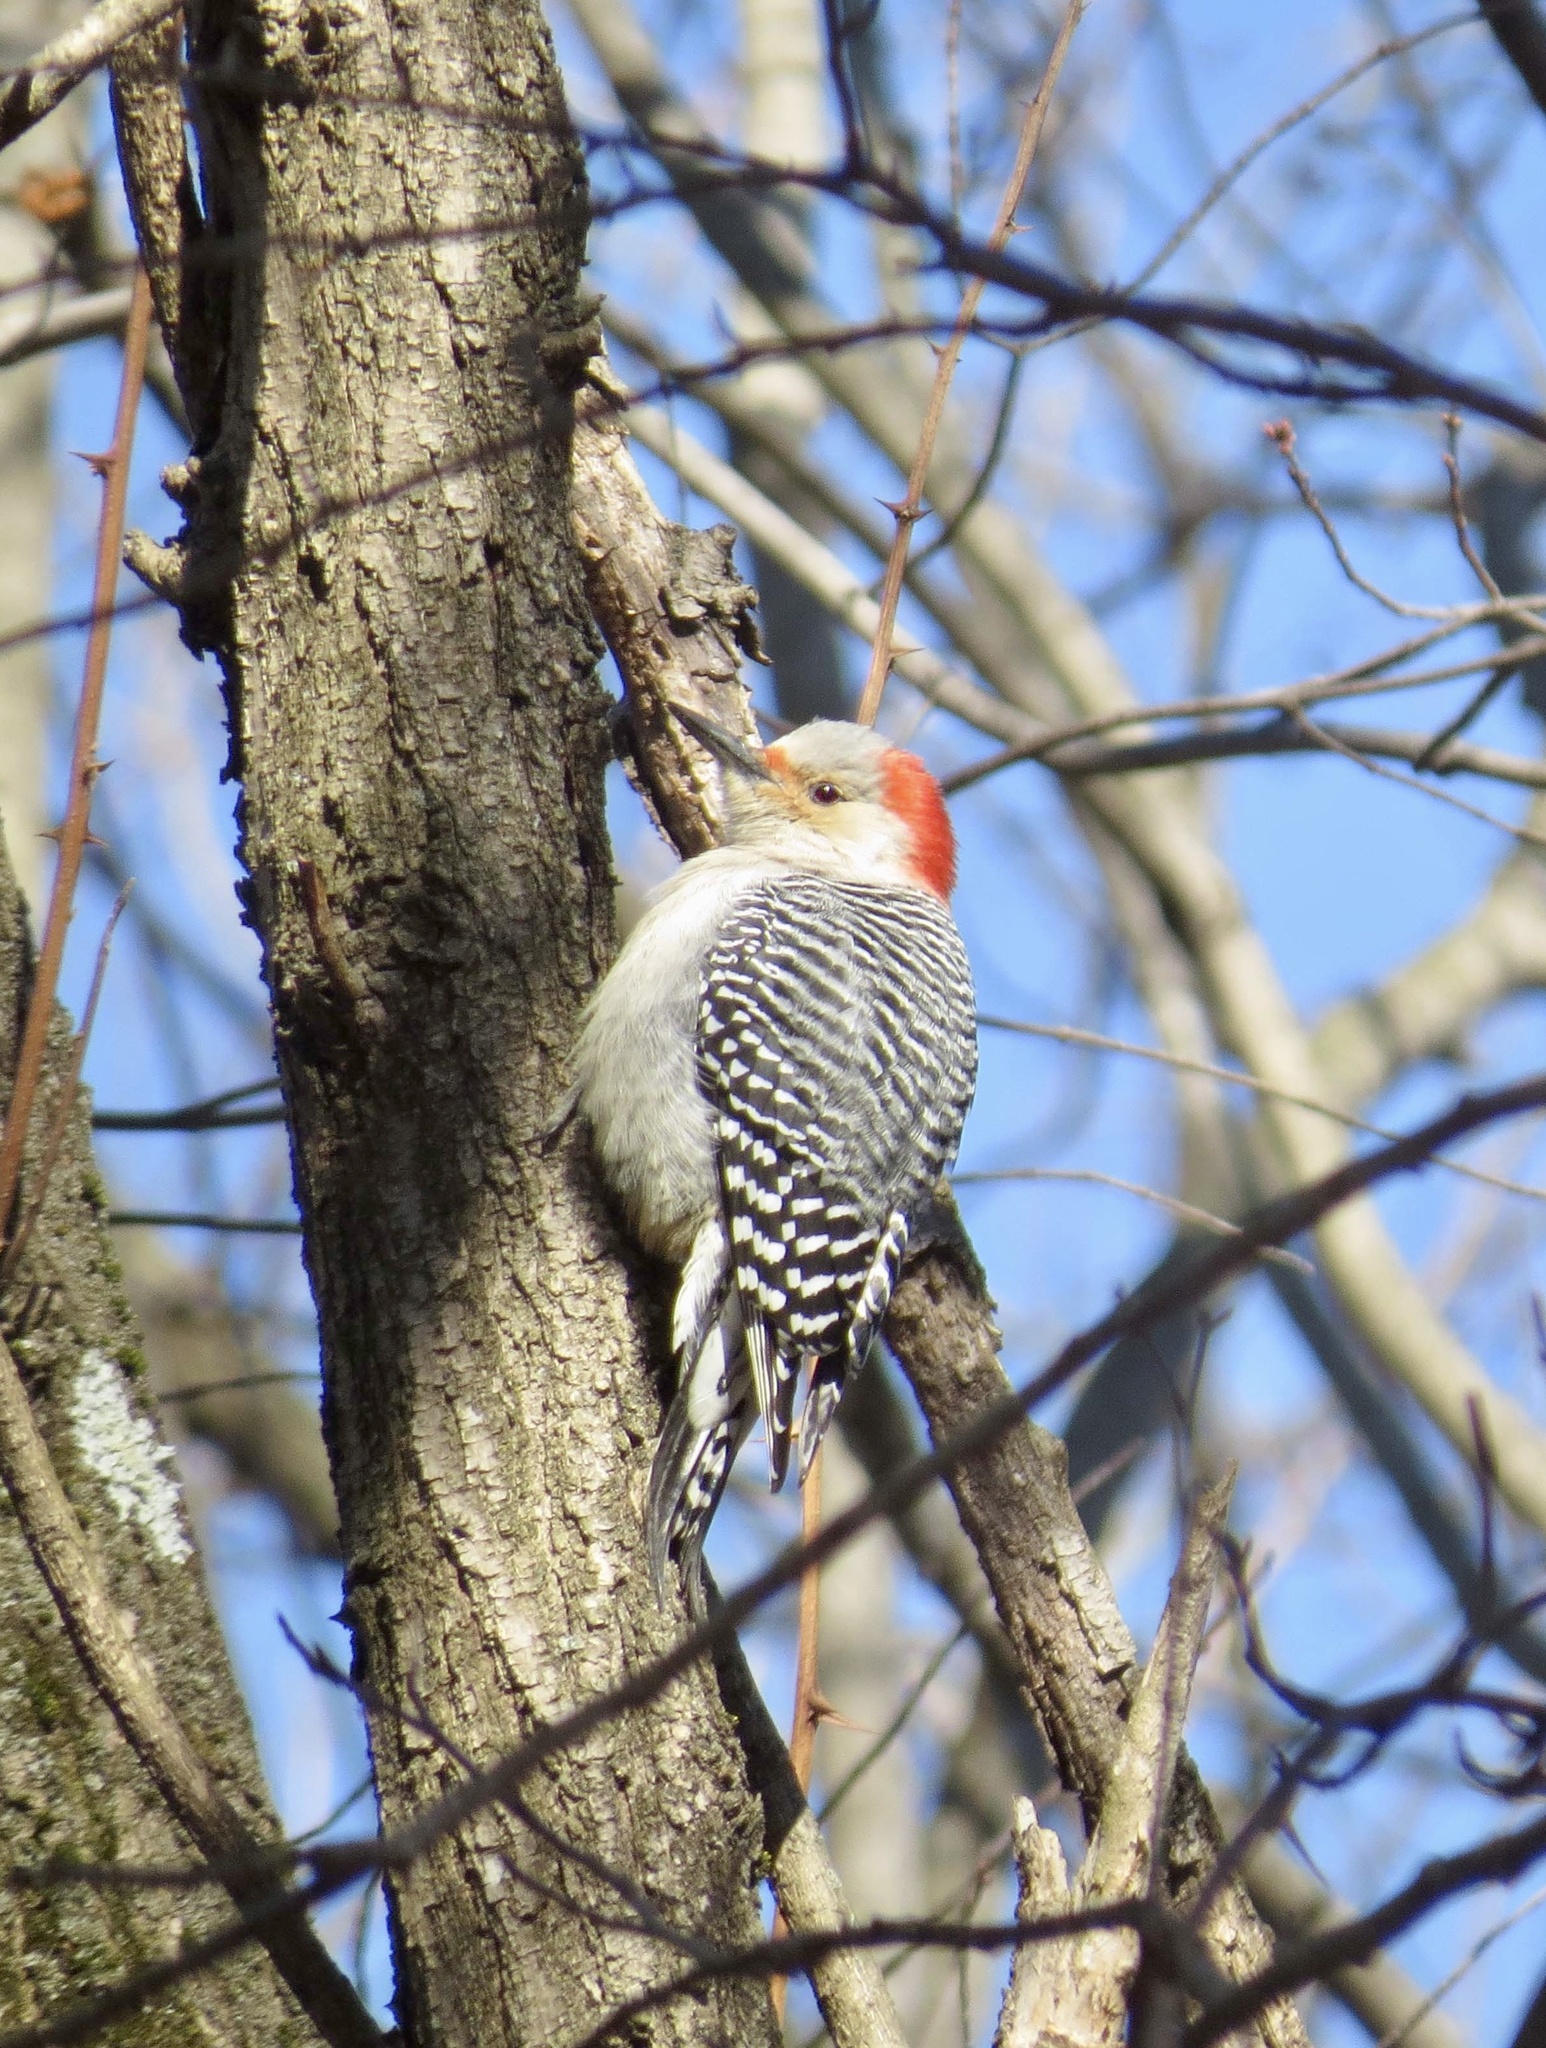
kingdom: Animalia
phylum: Chordata
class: Aves
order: Piciformes
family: Picidae
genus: Melanerpes
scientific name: Melanerpes carolinus
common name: Red-bellied woodpecker
